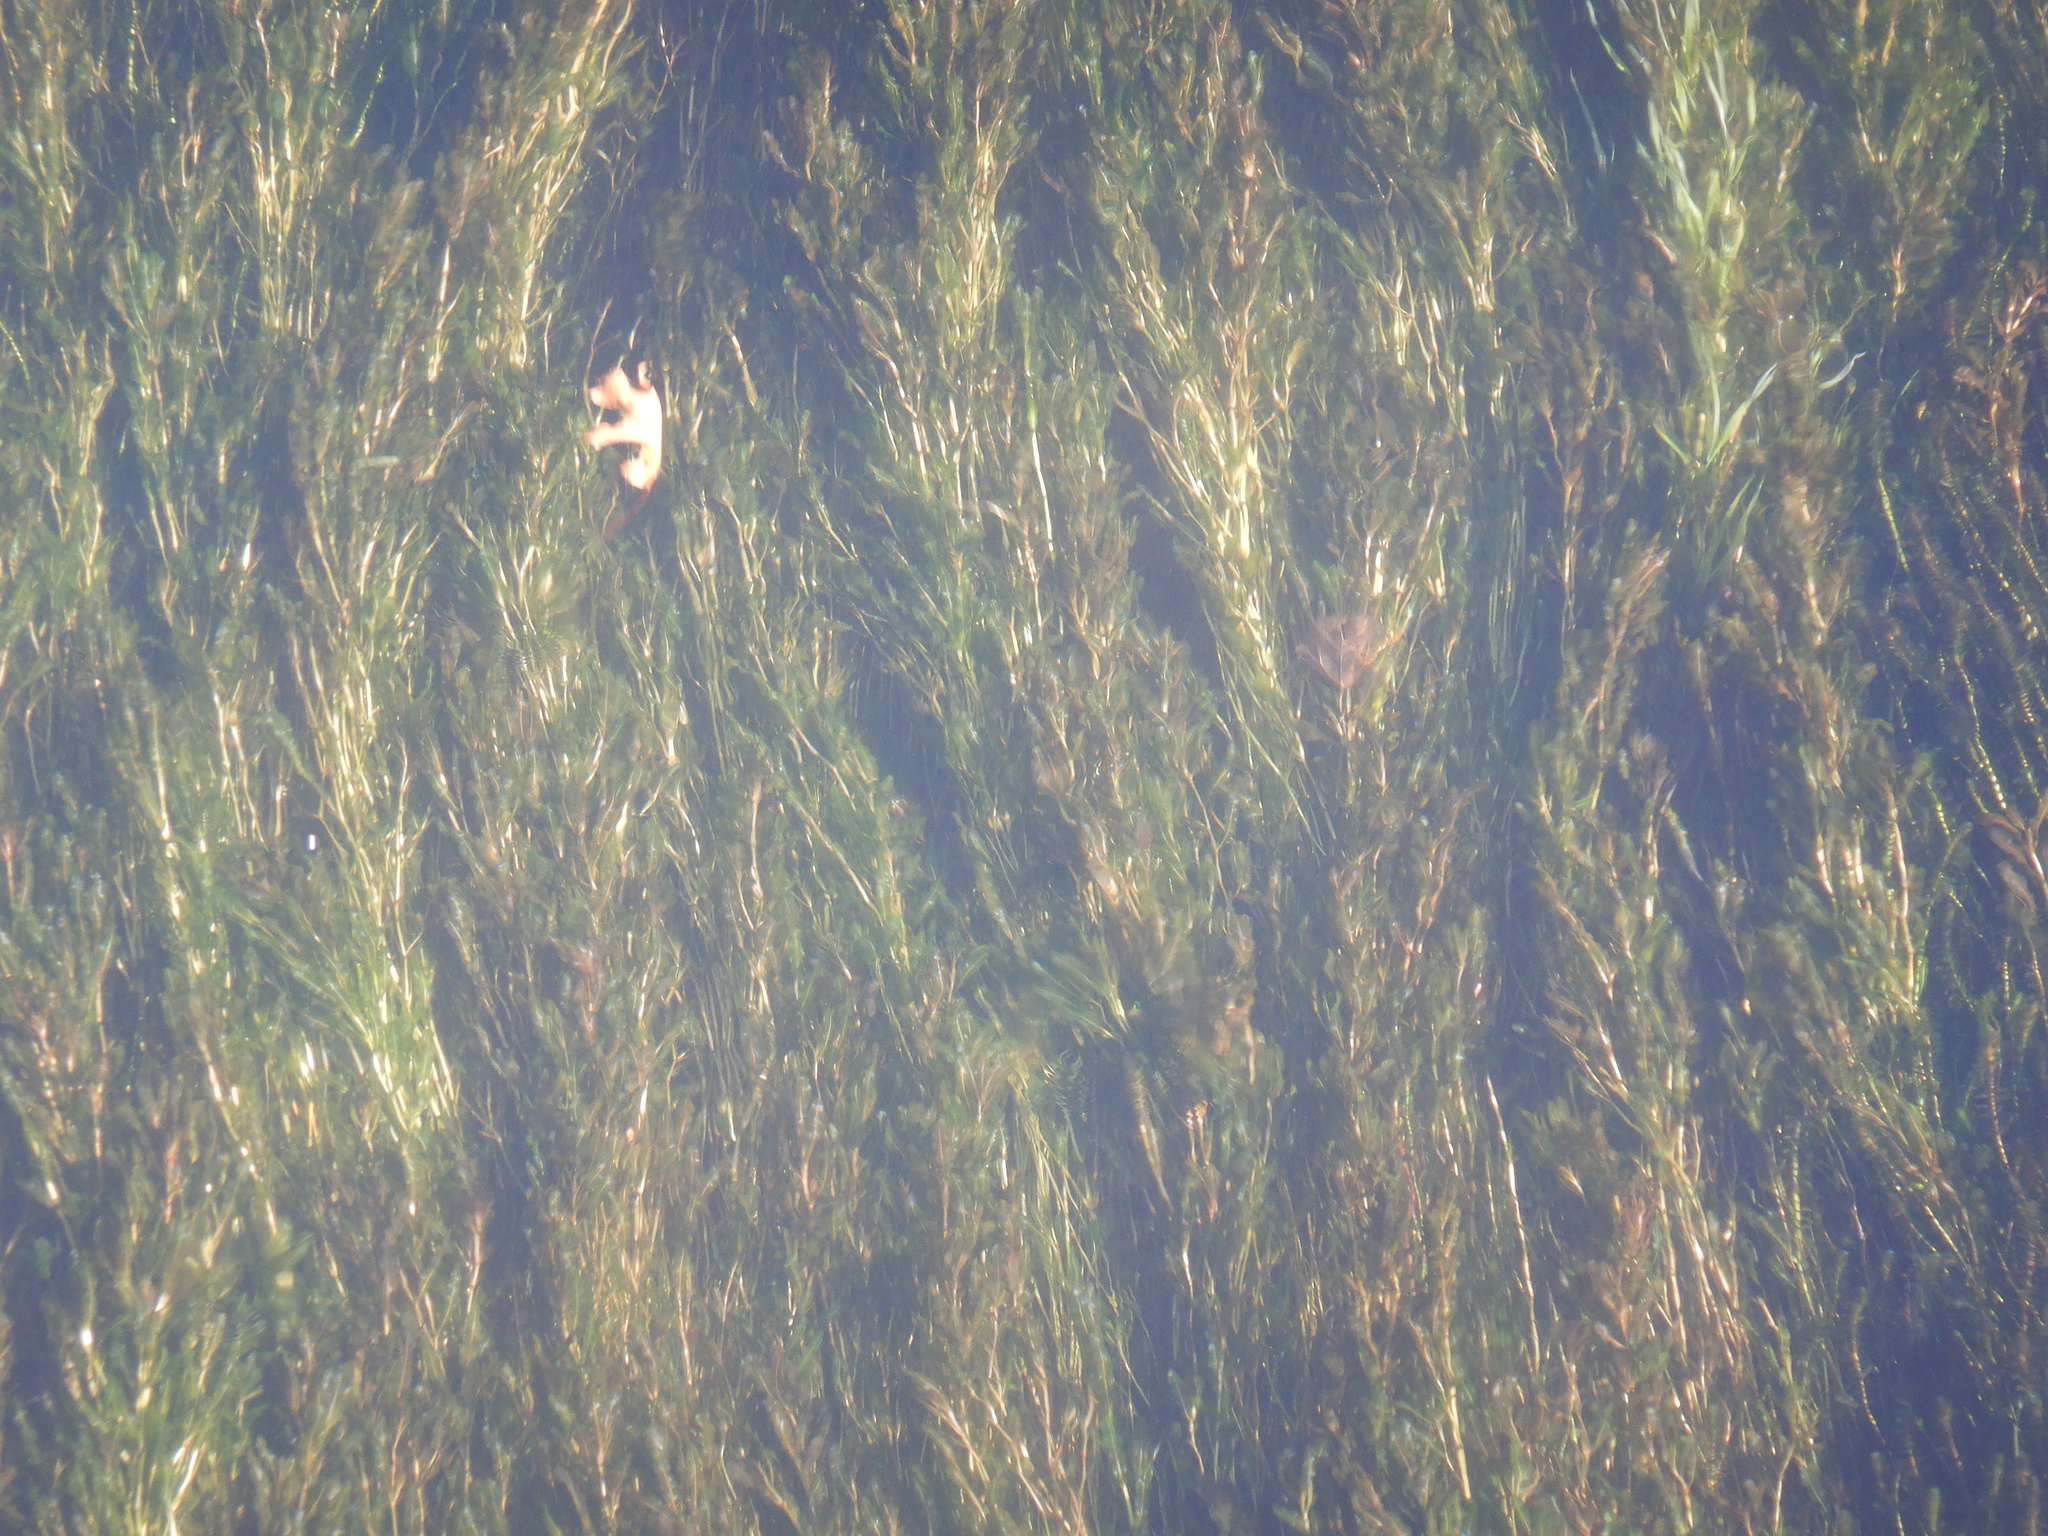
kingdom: Plantae
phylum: Tracheophyta
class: Liliopsida
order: Alismatales
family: Potamogetonaceae
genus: Potamogeton
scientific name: Potamogeton crispus
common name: Curled pondweed
